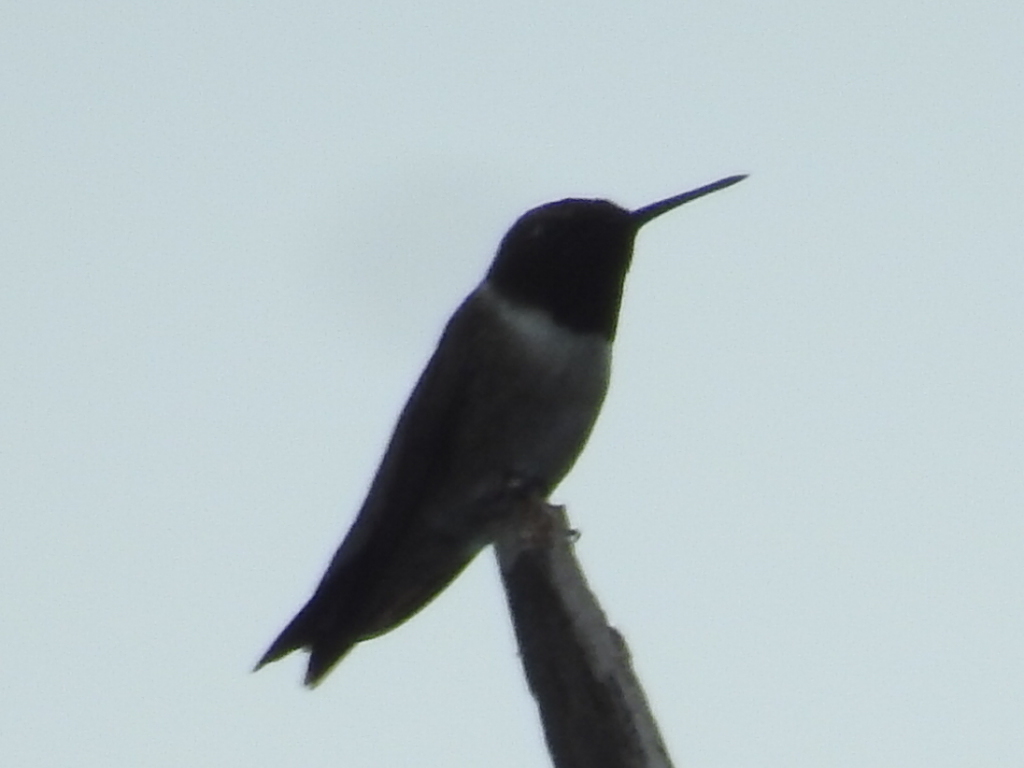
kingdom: Animalia
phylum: Chordata
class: Aves
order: Apodiformes
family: Trochilidae
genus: Archilochus
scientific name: Archilochus alexandri
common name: Black-chinned hummingbird
